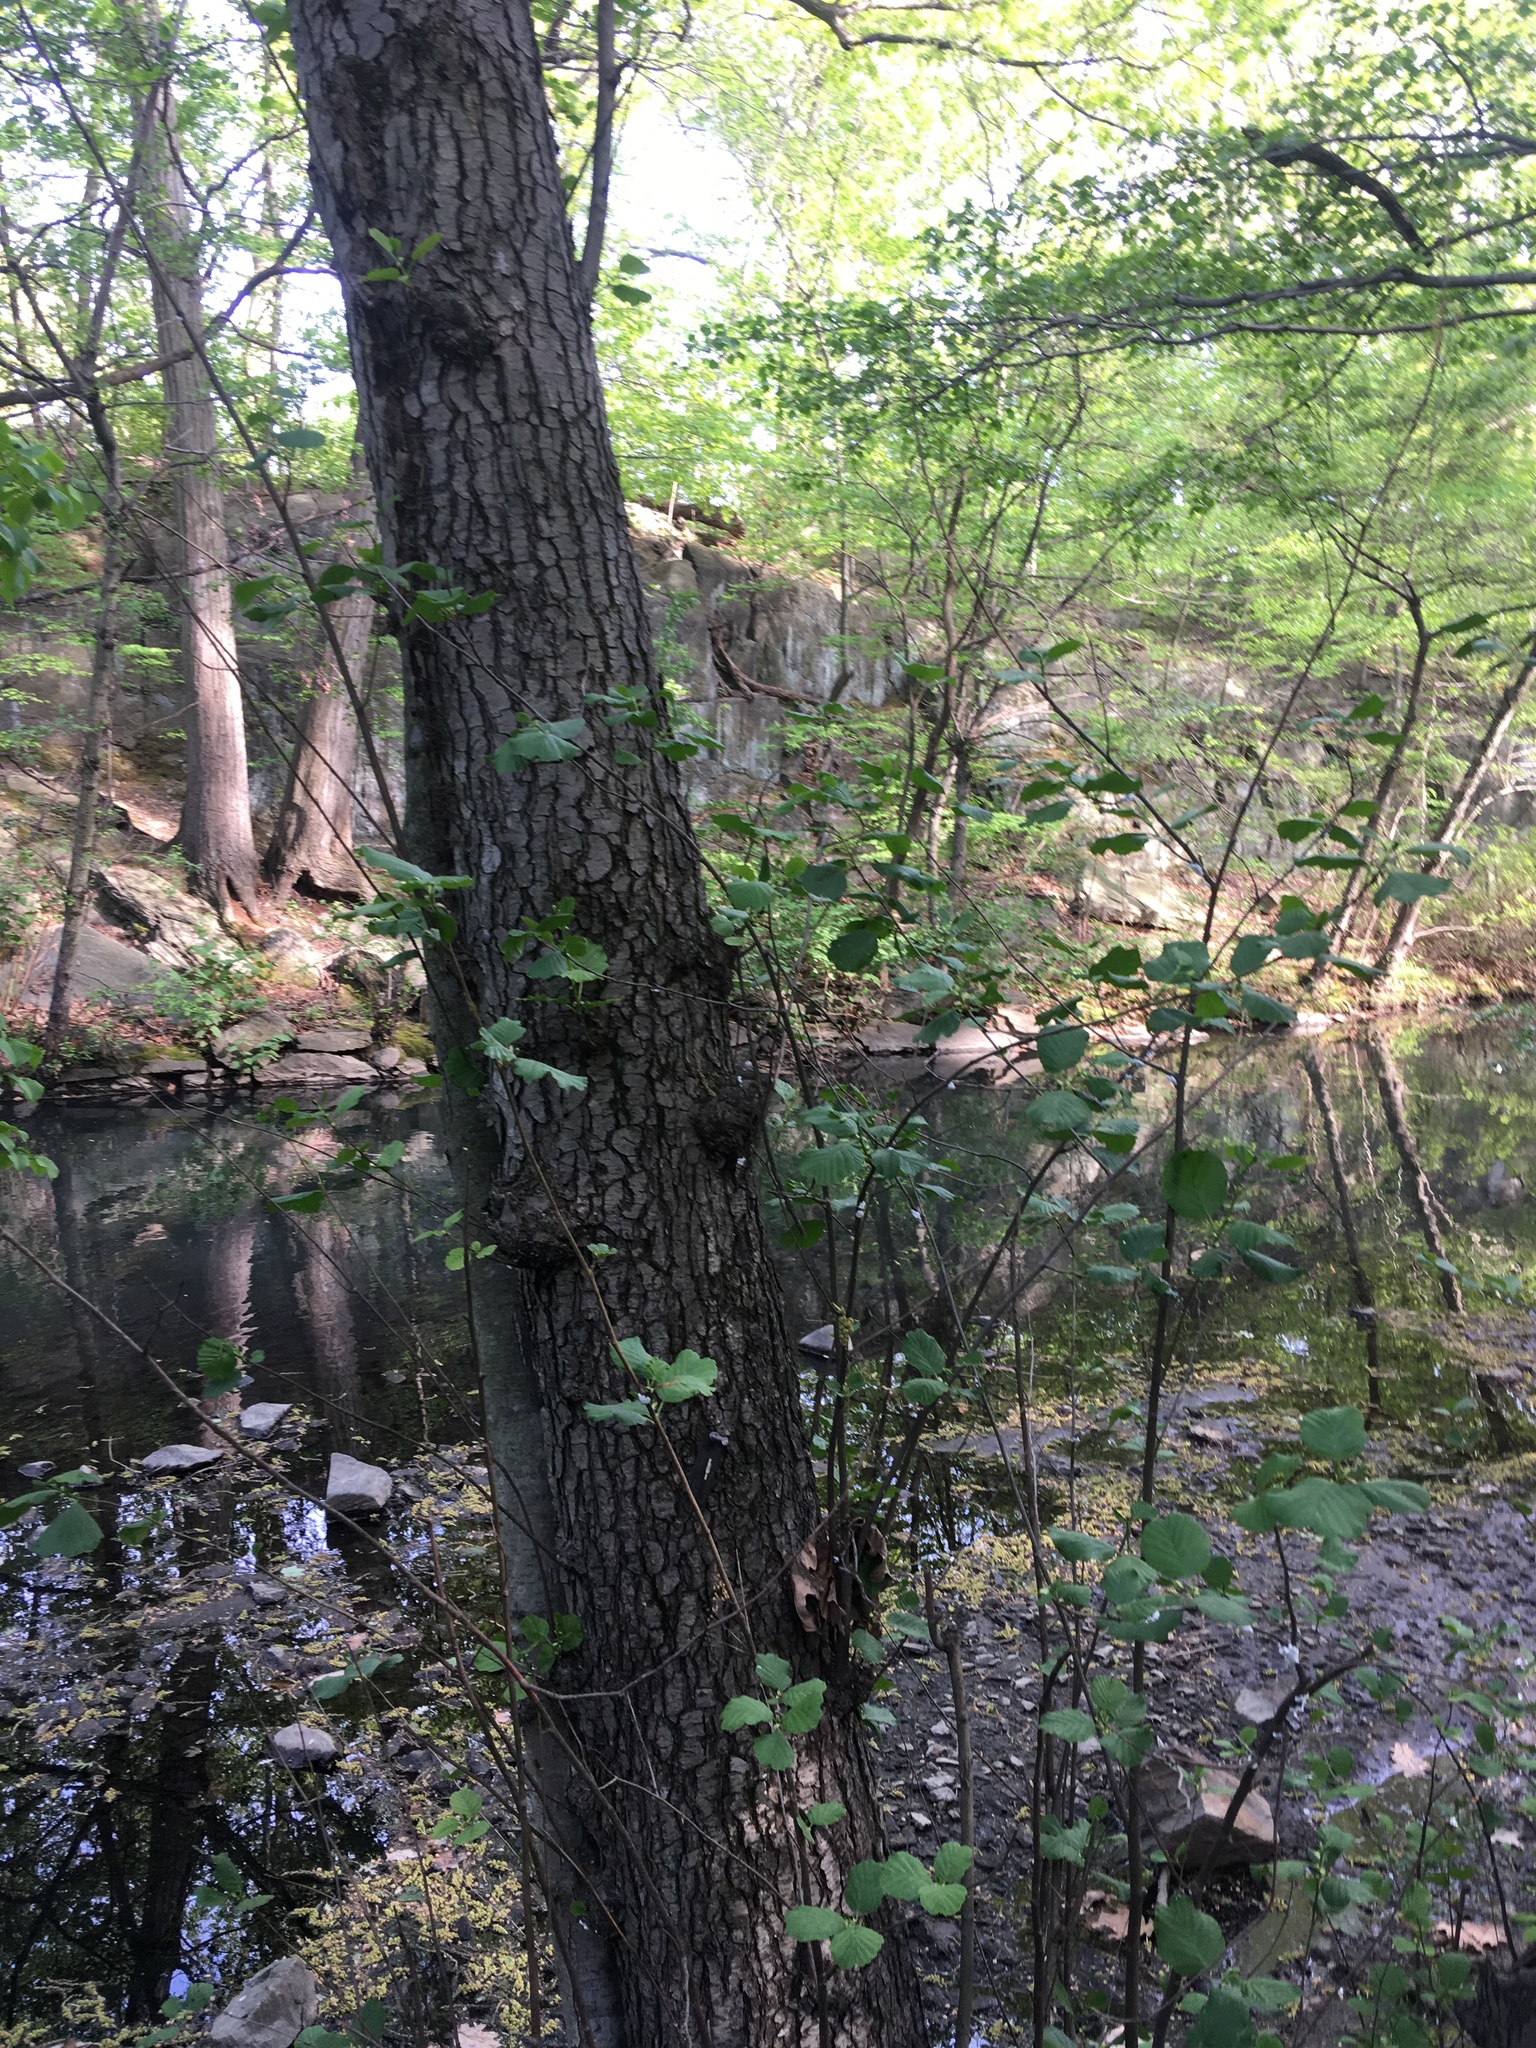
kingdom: Plantae
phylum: Tracheophyta
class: Magnoliopsida
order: Fagales
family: Betulaceae
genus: Alnus
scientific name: Alnus glutinosa
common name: Black alder
